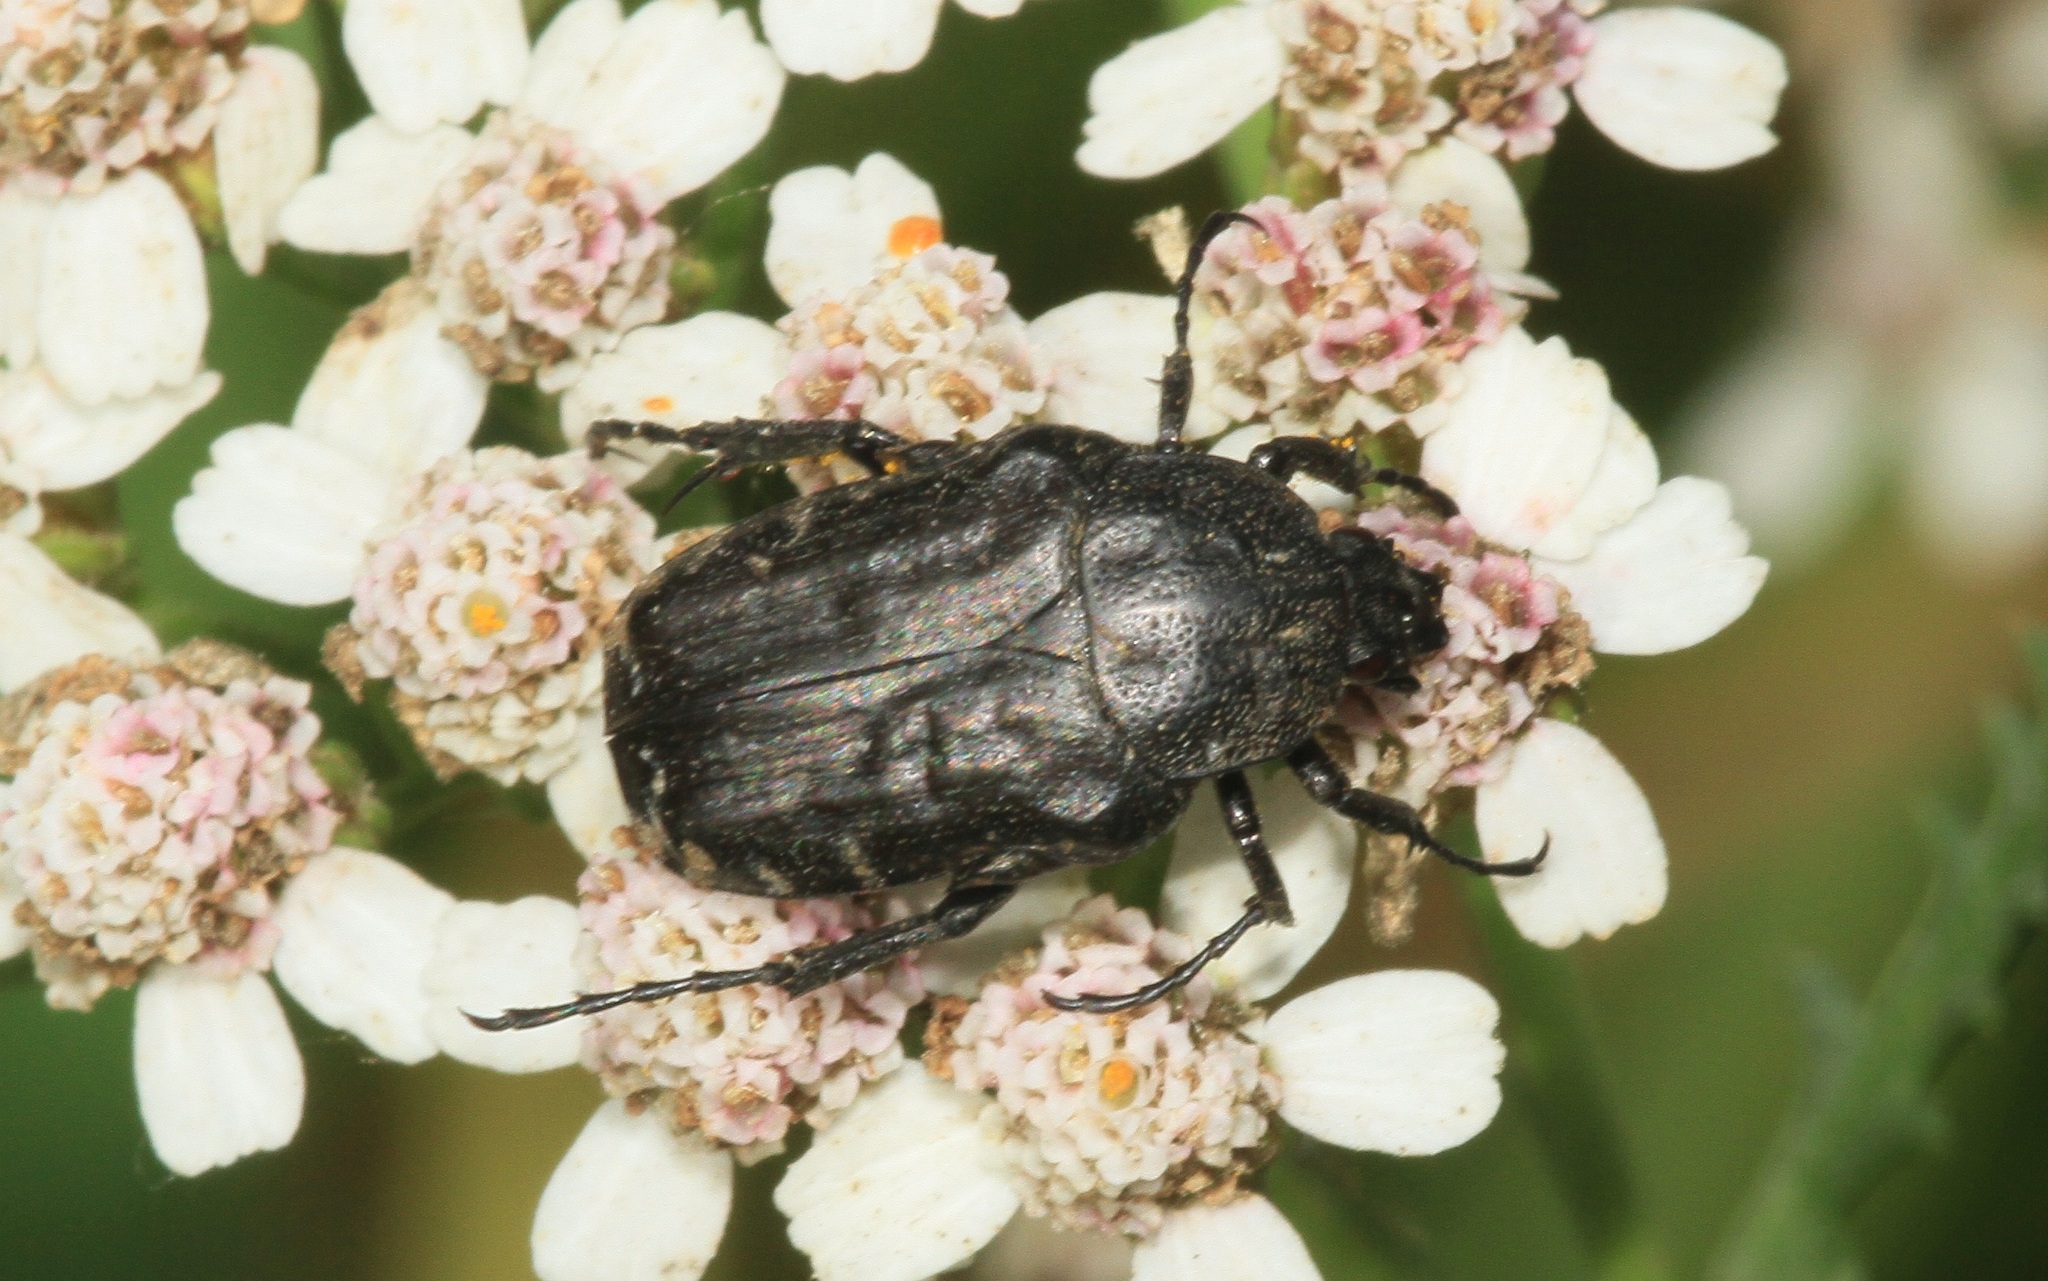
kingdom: Animalia
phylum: Arthropoda
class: Insecta
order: Coleoptera
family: Scarabaeidae
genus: Oxythyrea
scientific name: Oxythyrea funesta
